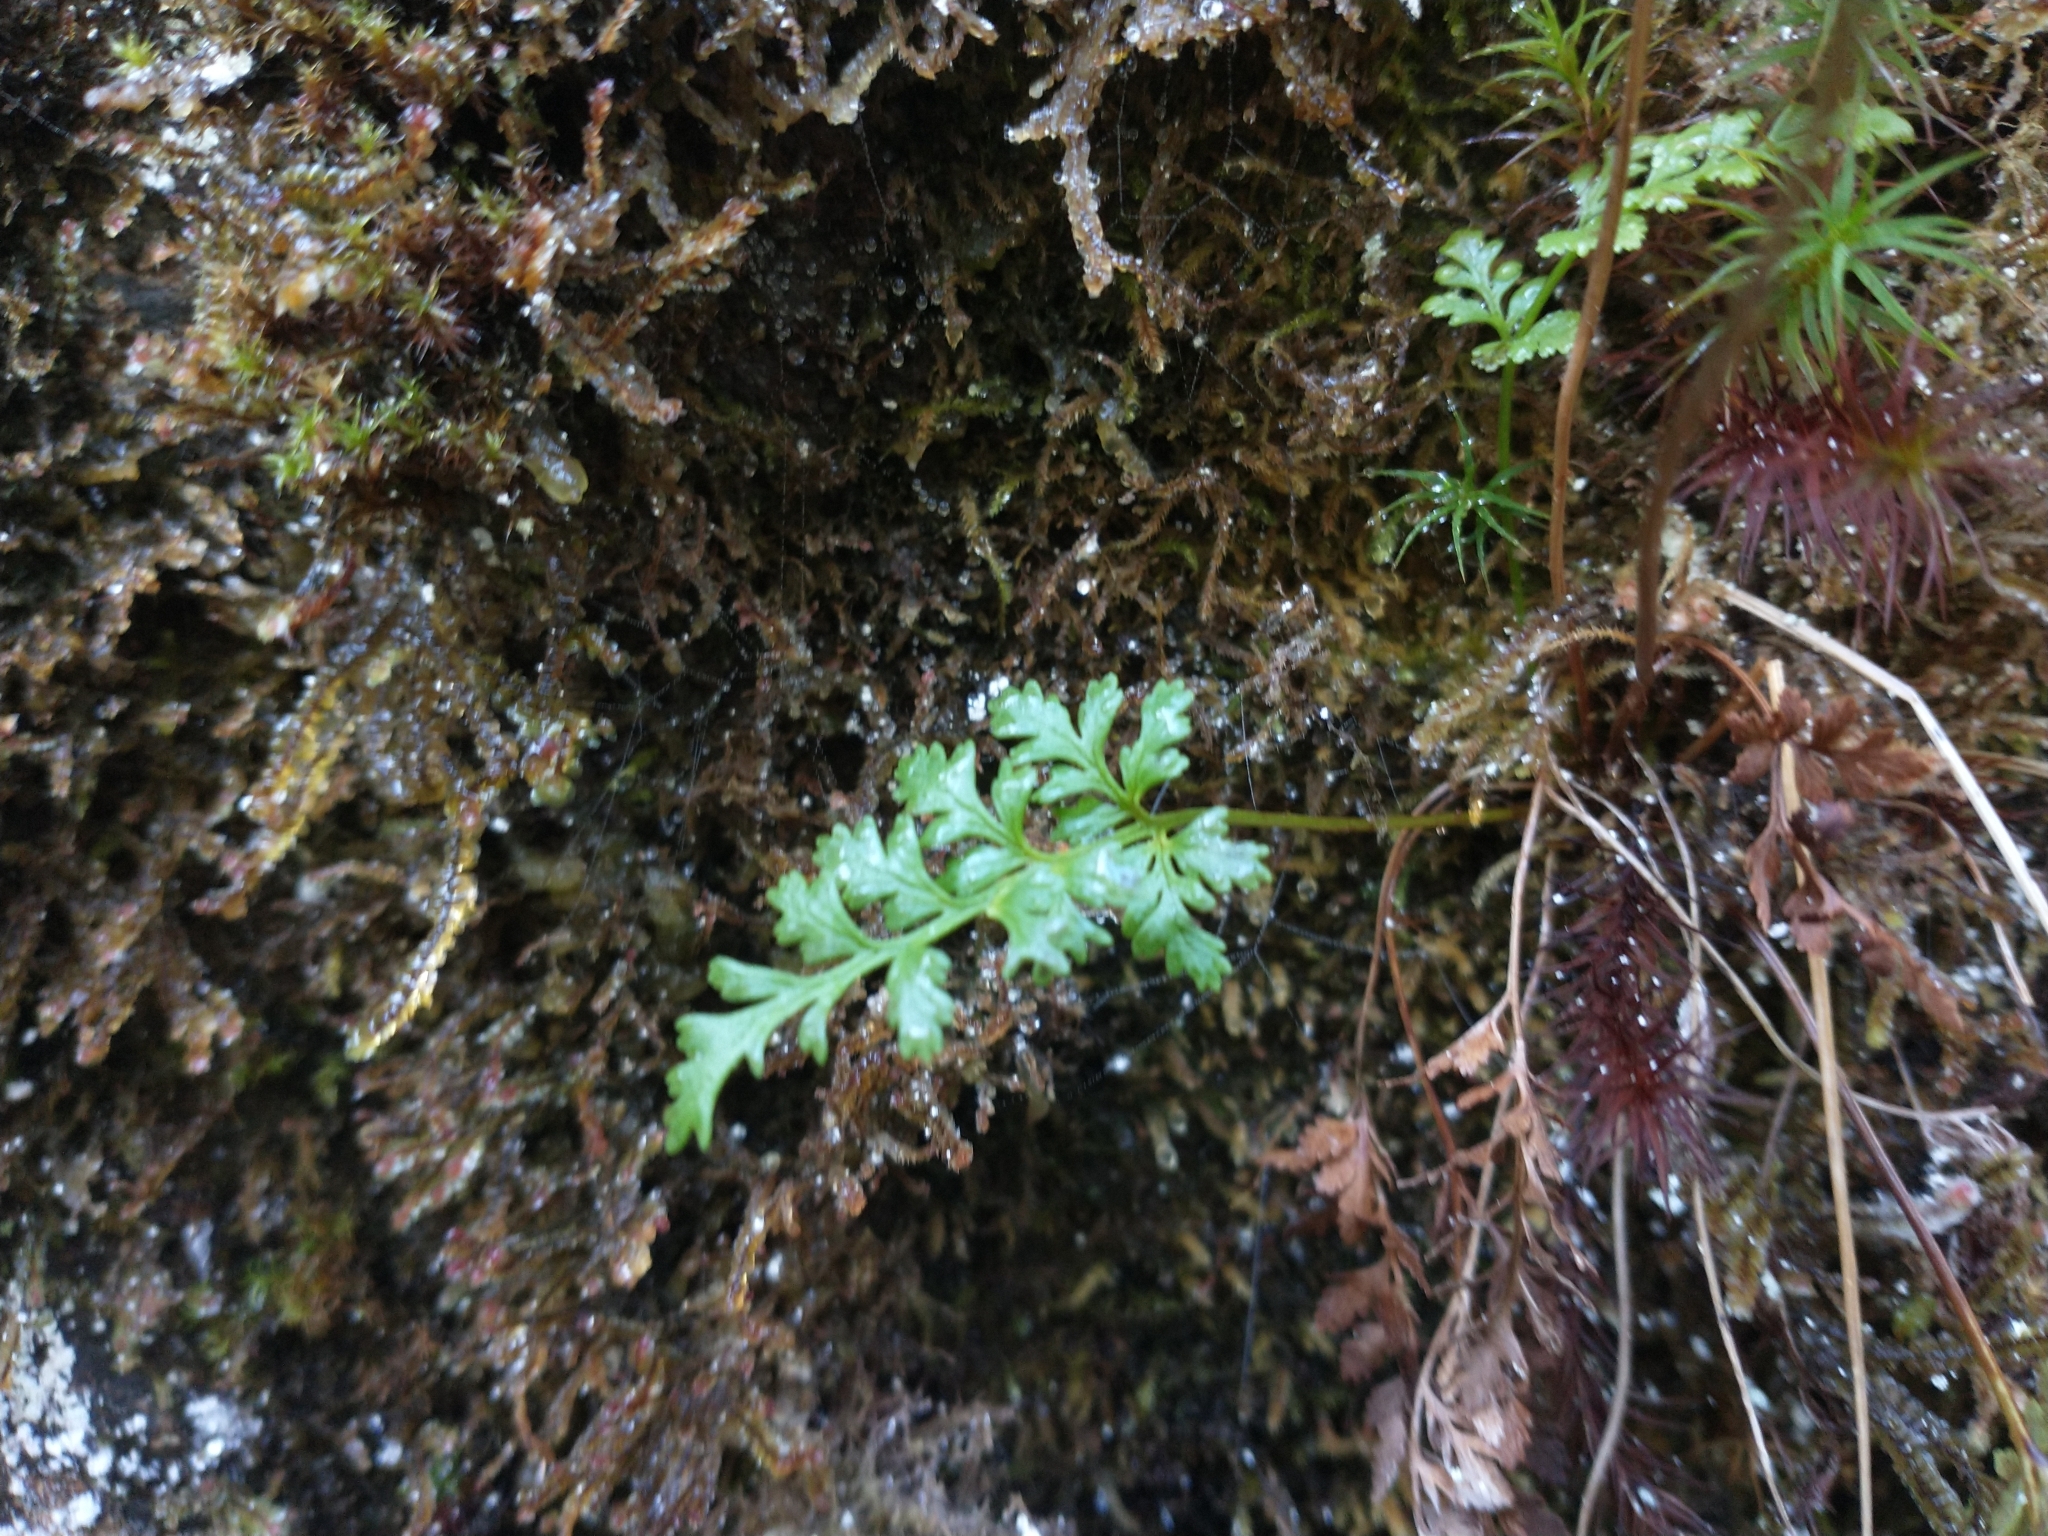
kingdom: Plantae
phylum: Tracheophyta
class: Polypodiopsida
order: Polypodiales
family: Pteridaceae
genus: Cryptogramma
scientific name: Cryptogramma acrostichoides
